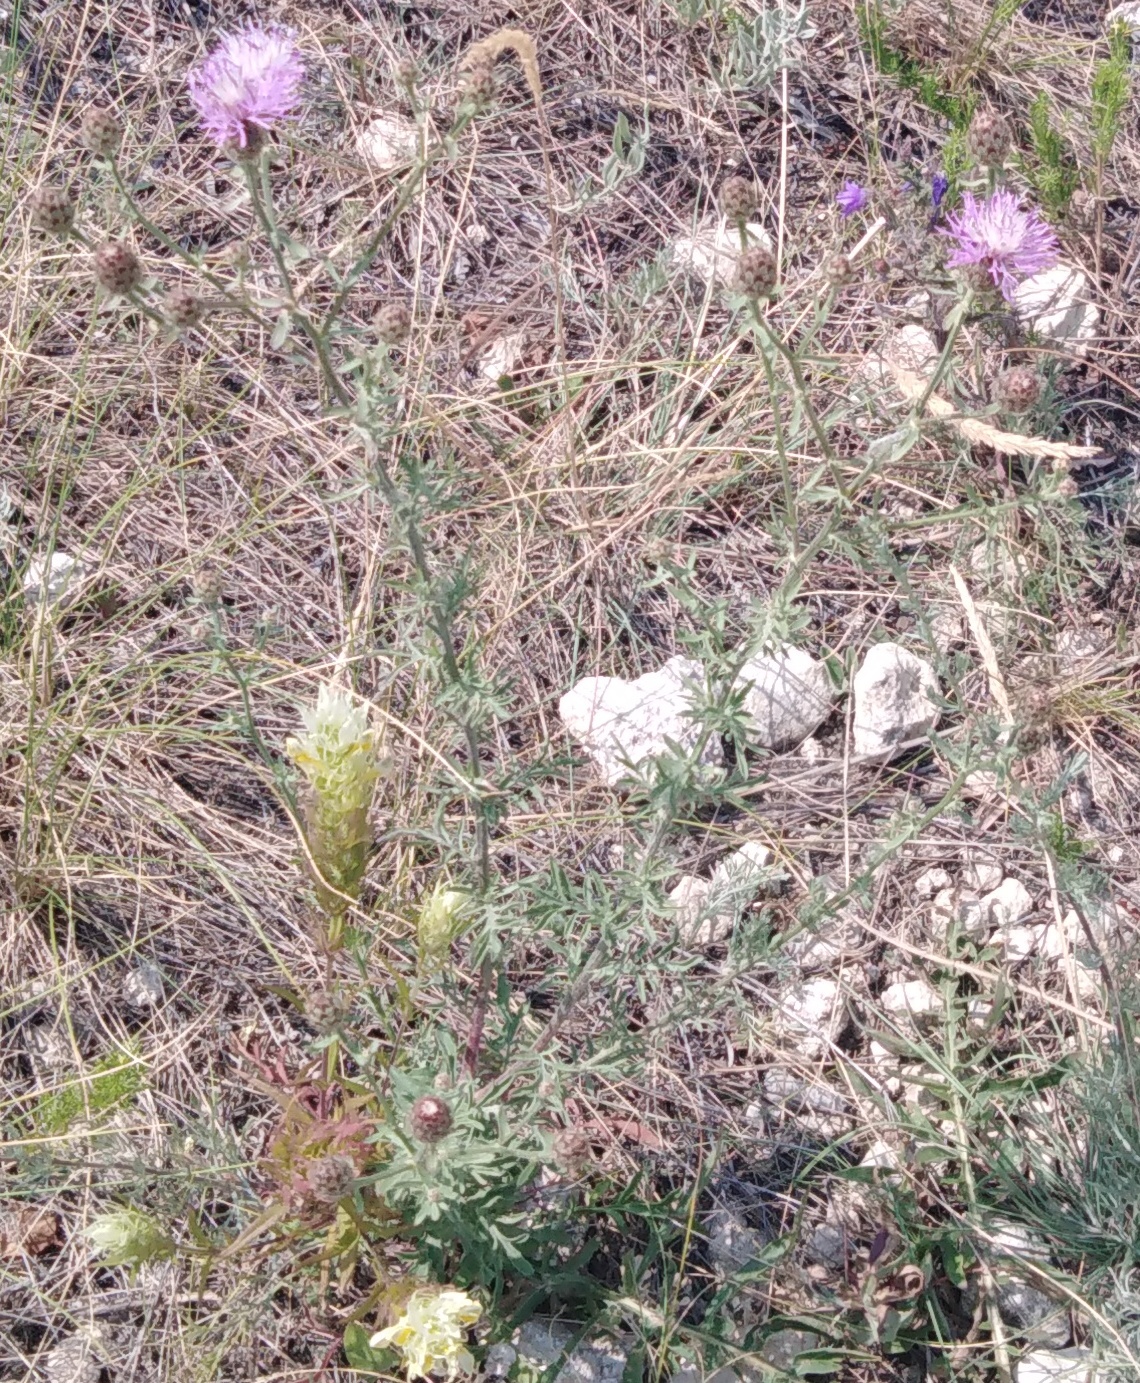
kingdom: Plantae
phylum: Tracheophyta
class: Magnoliopsida
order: Asterales
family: Asteraceae
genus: Centaurea
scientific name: Centaurea stoebe
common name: Spotted knapweed
